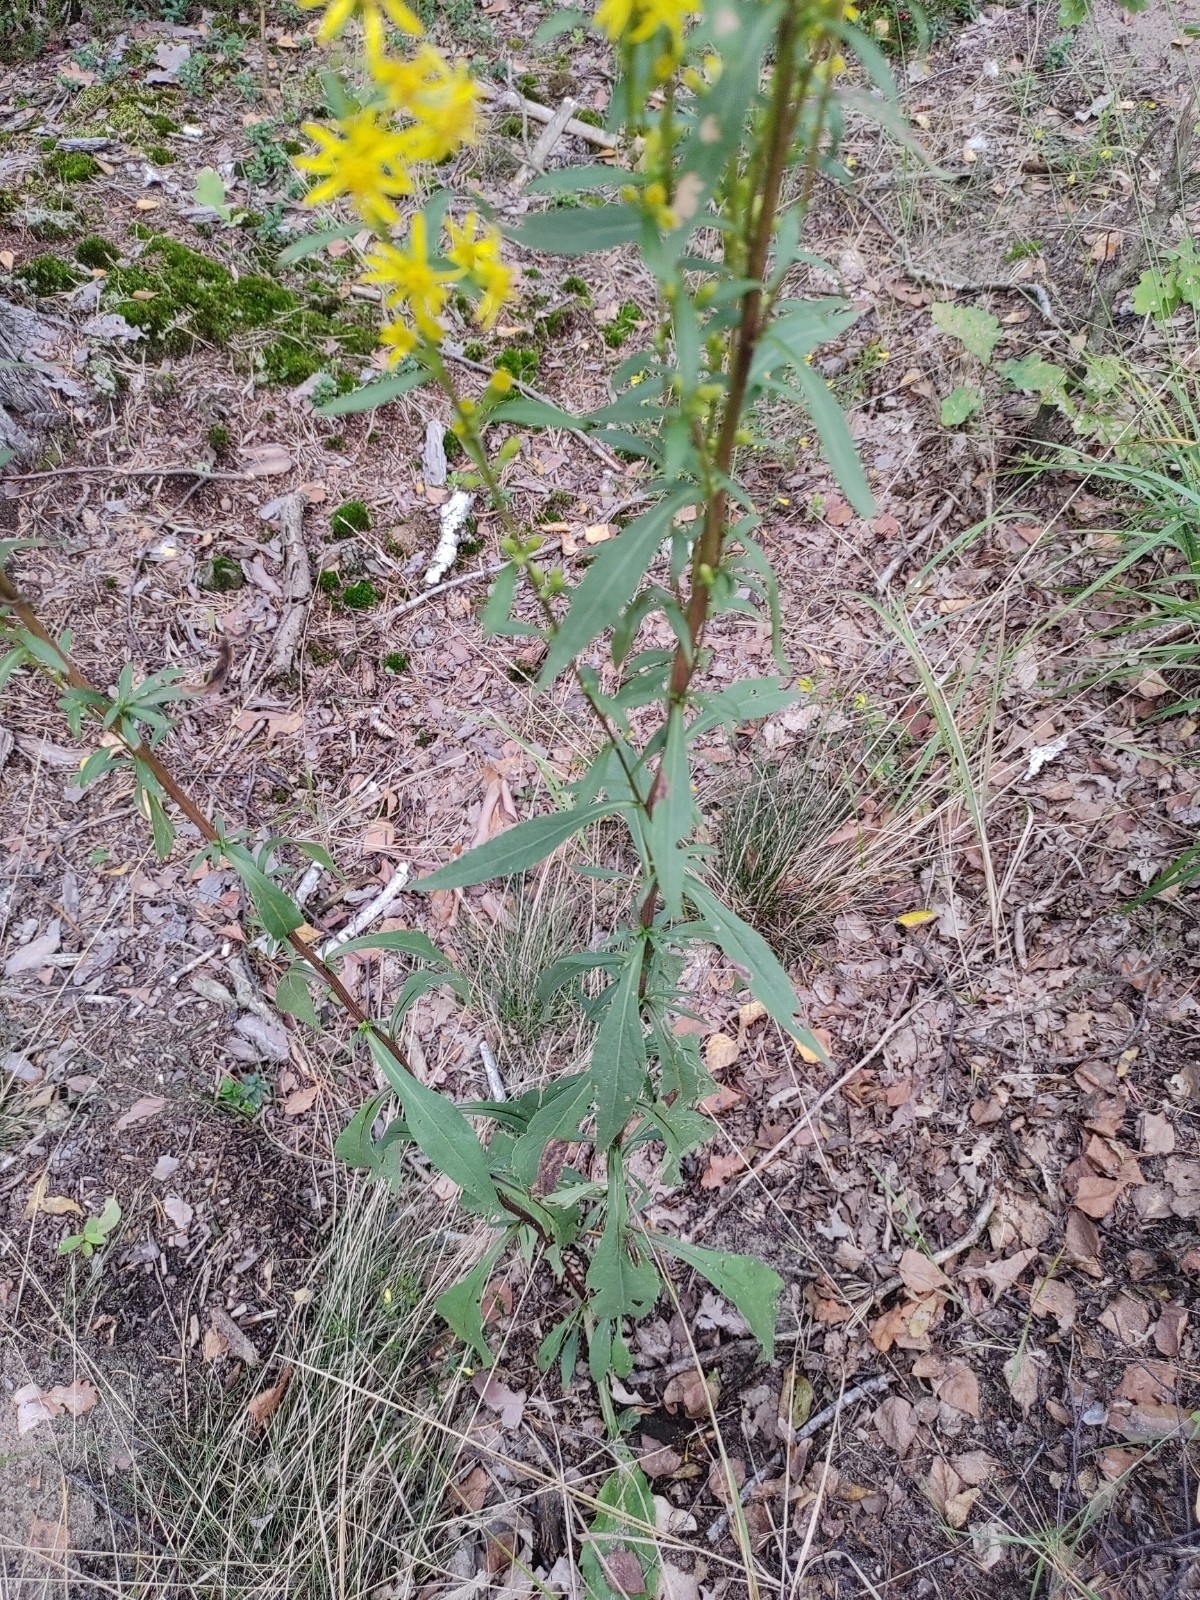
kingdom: Plantae
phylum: Tracheophyta
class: Magnoliopsida
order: Asterales
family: Asteraceae
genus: Solidago
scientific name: Solidago virgaurea
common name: Goldenrod
